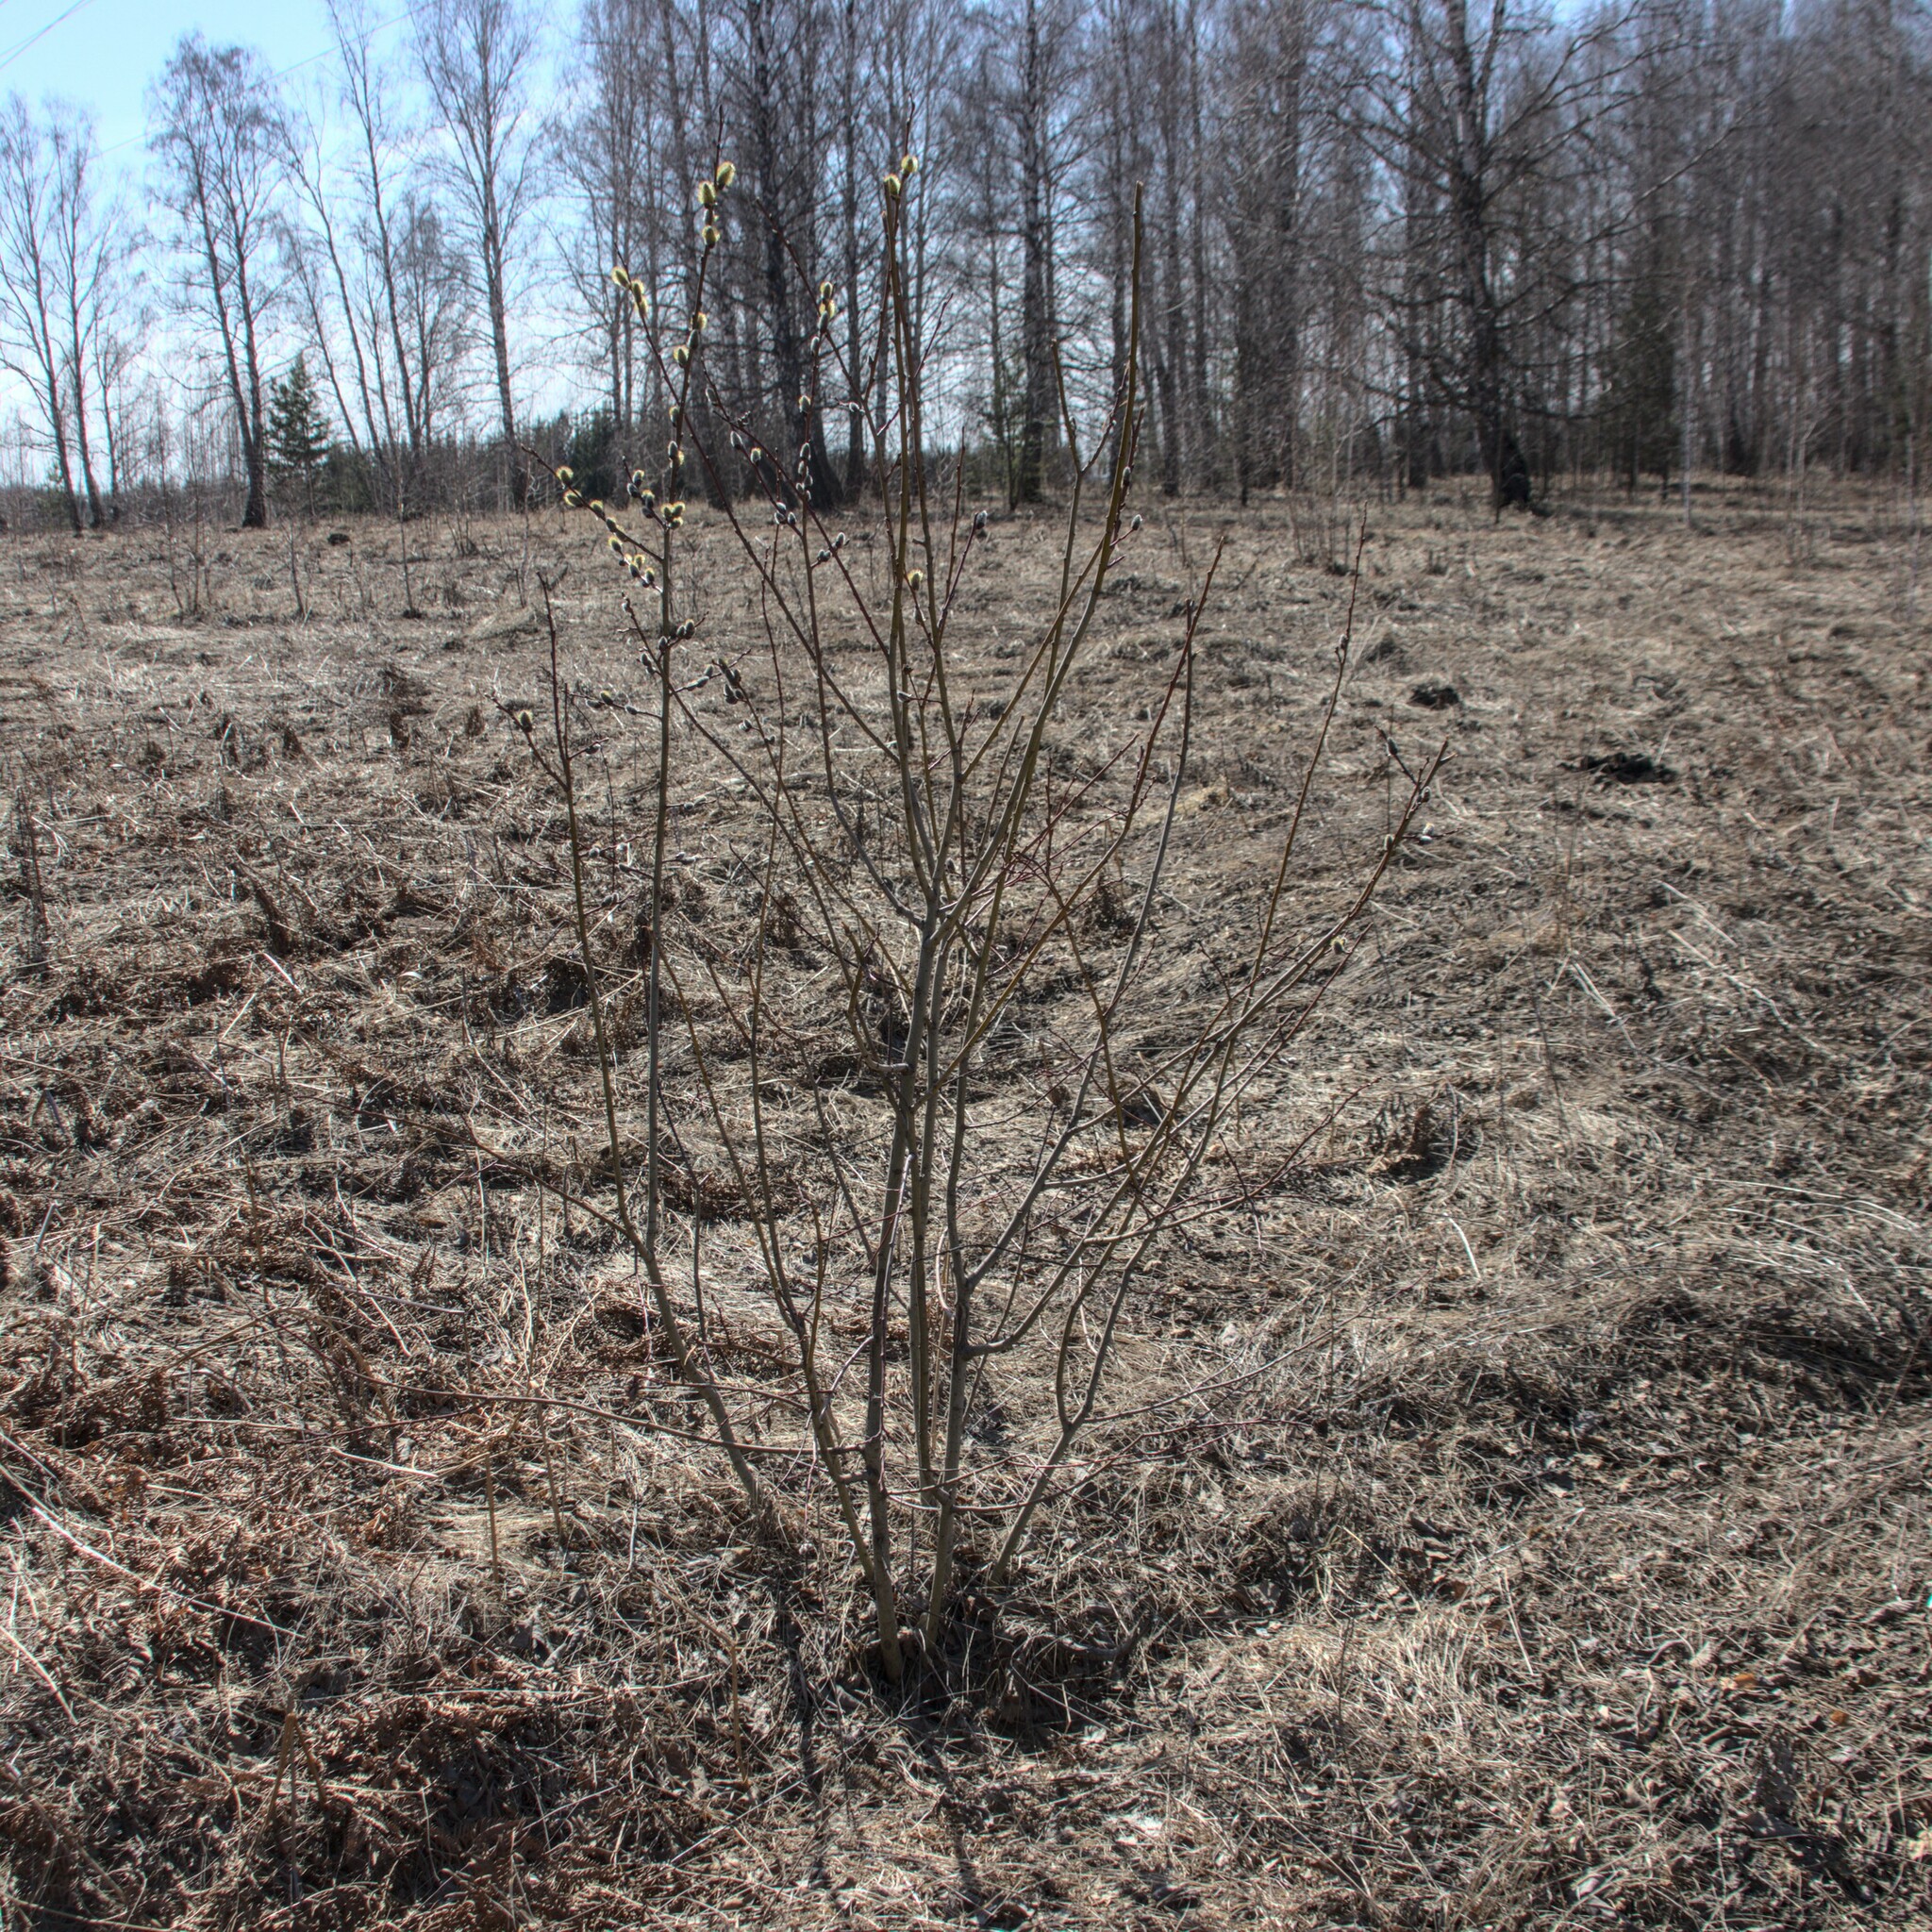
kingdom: Plantae
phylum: Tracheophyta
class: Magnoliopsida
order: Malpighiales
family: Salicaceae
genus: Salix
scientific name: Salix caprea
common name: Goat willow
